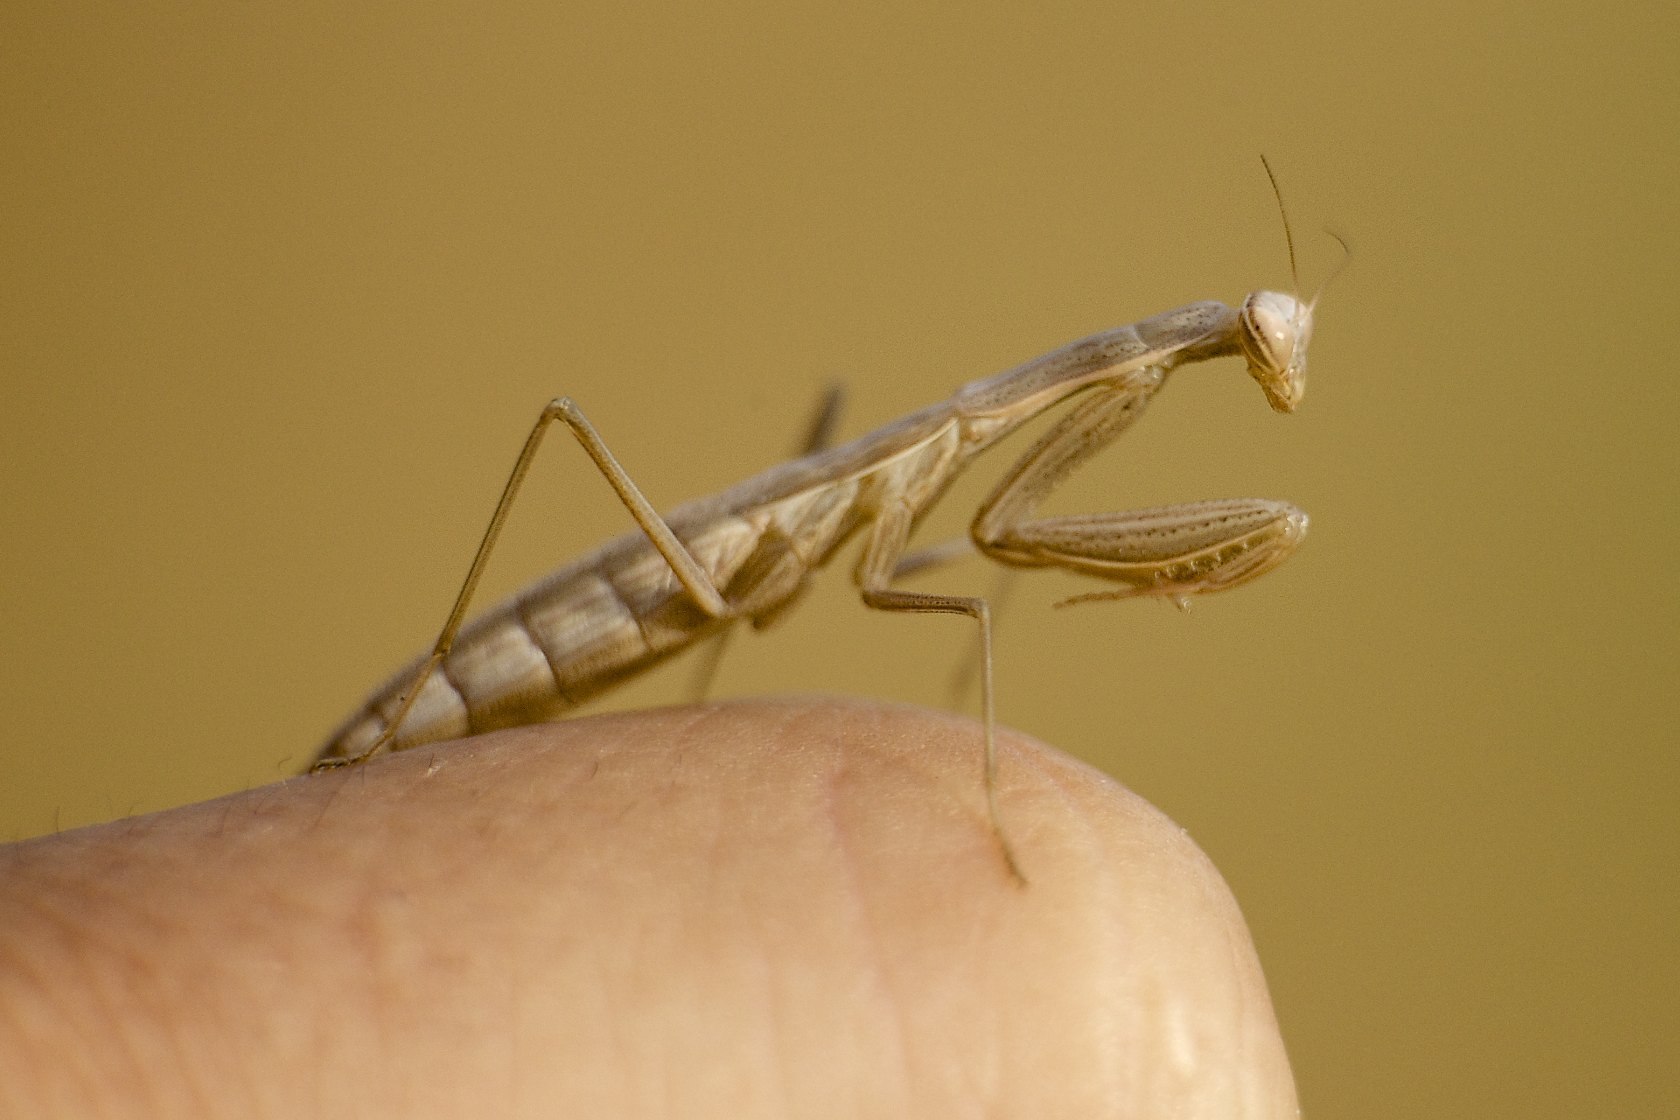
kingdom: Animalia
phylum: Arthropoda
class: Insecta
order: Mantodea
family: Mantidae
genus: Mantis
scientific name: Mantis religiosa
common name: Praying mantis
